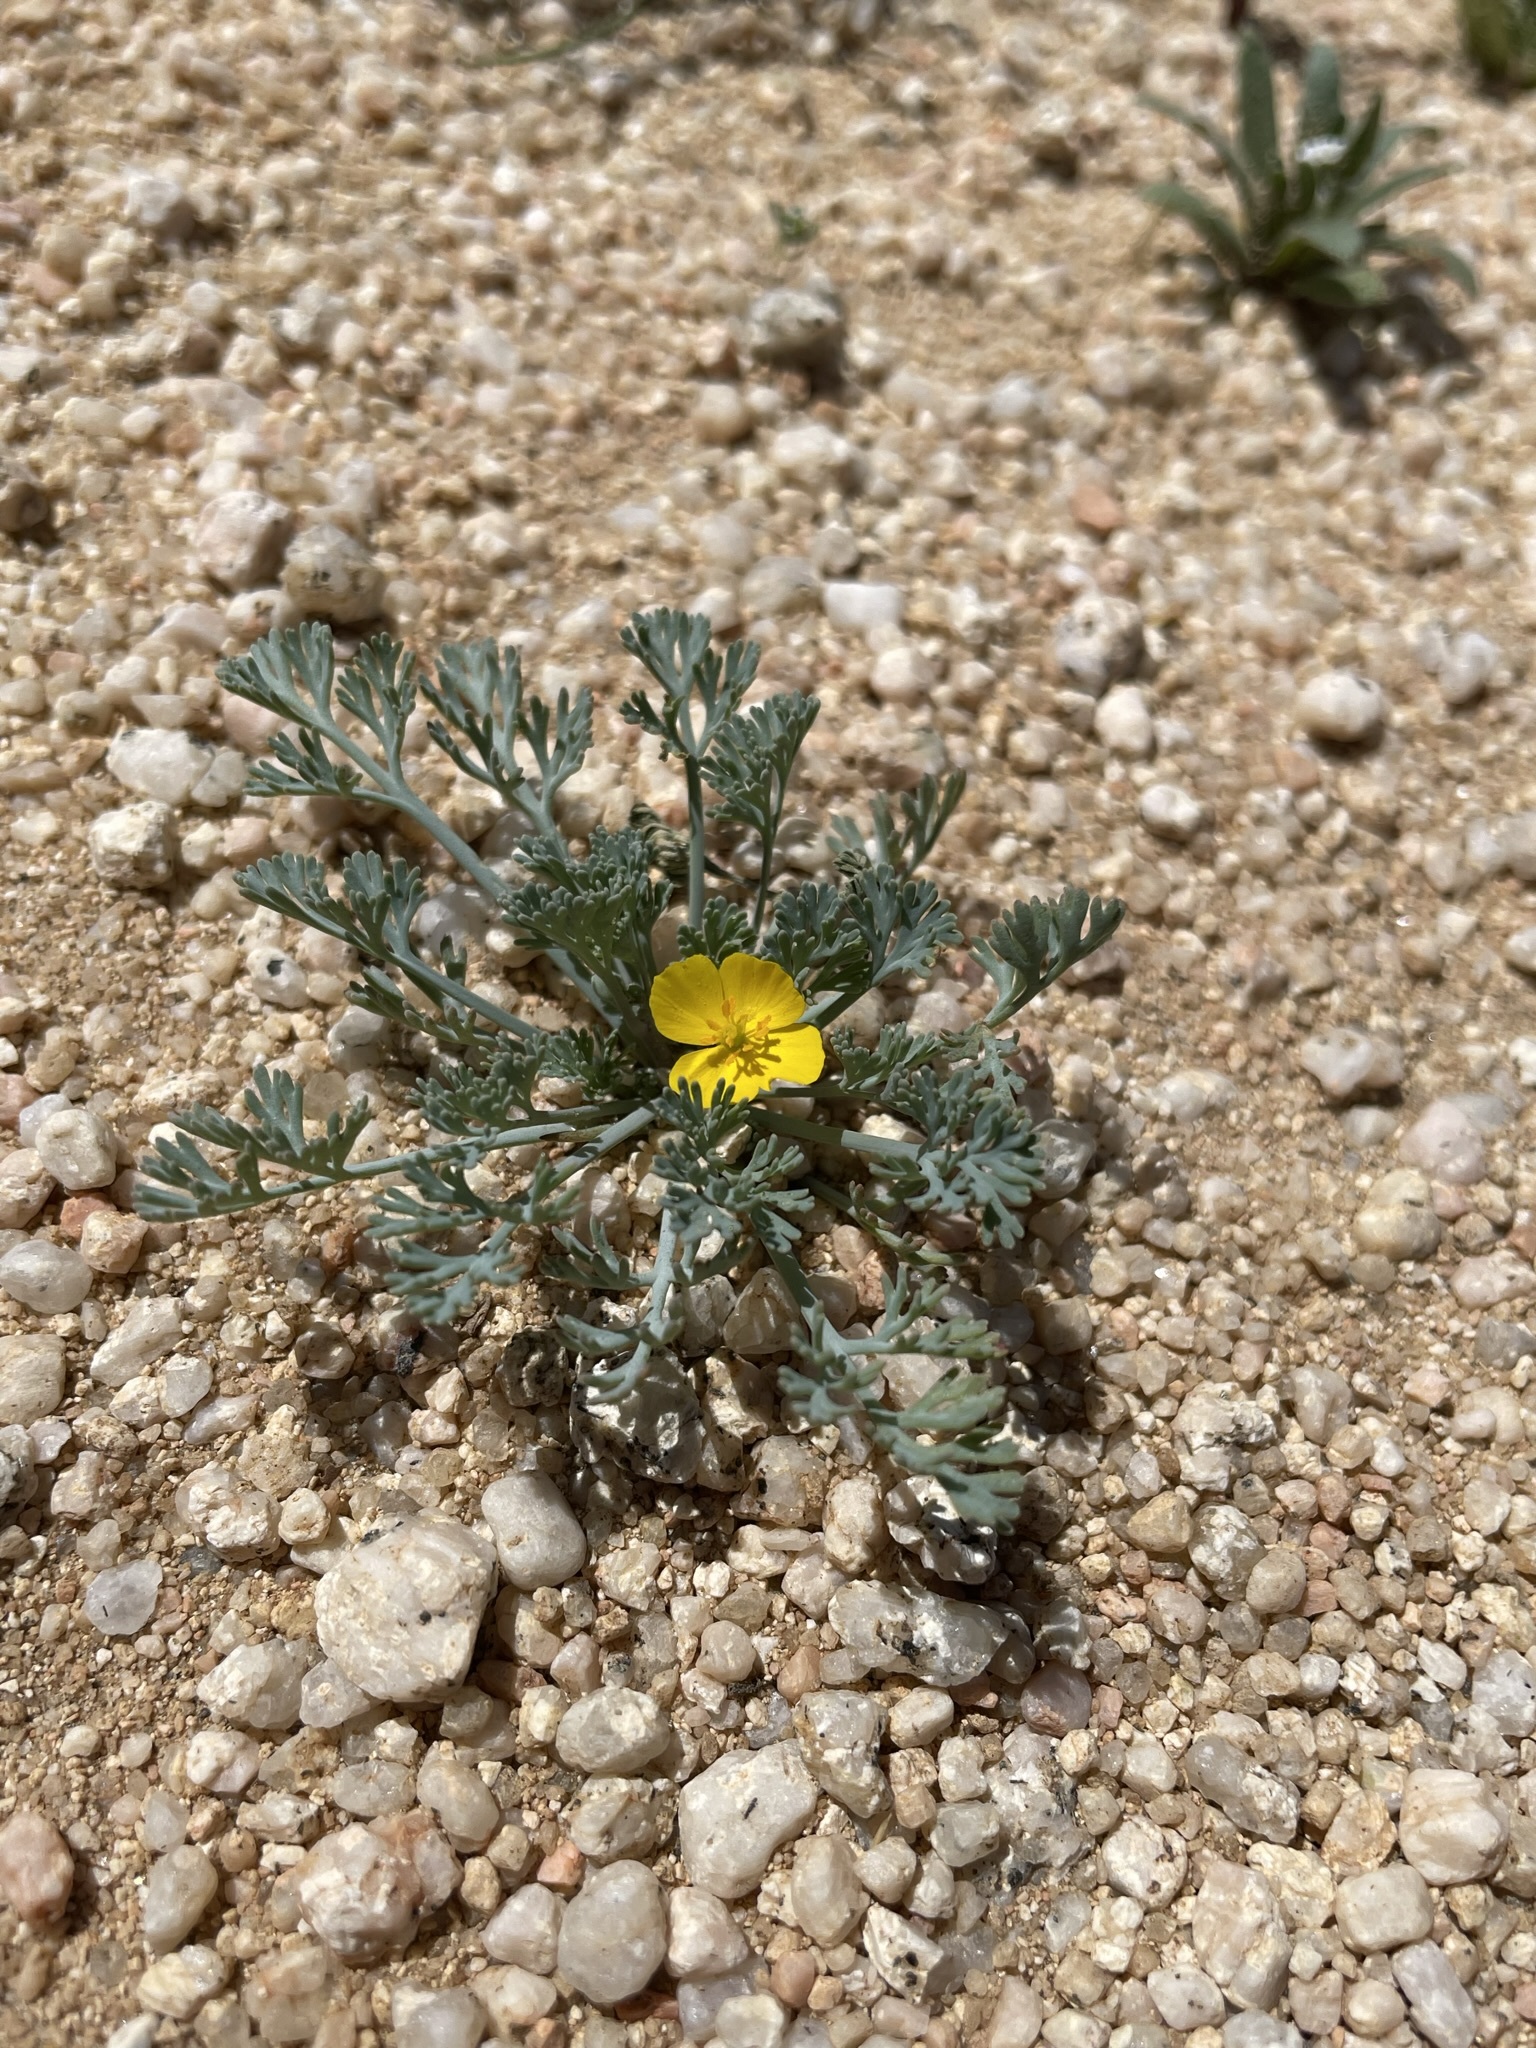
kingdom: Plantae
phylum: Tracheophyta
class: Magnoliopsida
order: Ranunculales
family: Papaveraceae
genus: Eschscholzia
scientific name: Eschscholzia minutiflora
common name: Small-flower california-poppy
